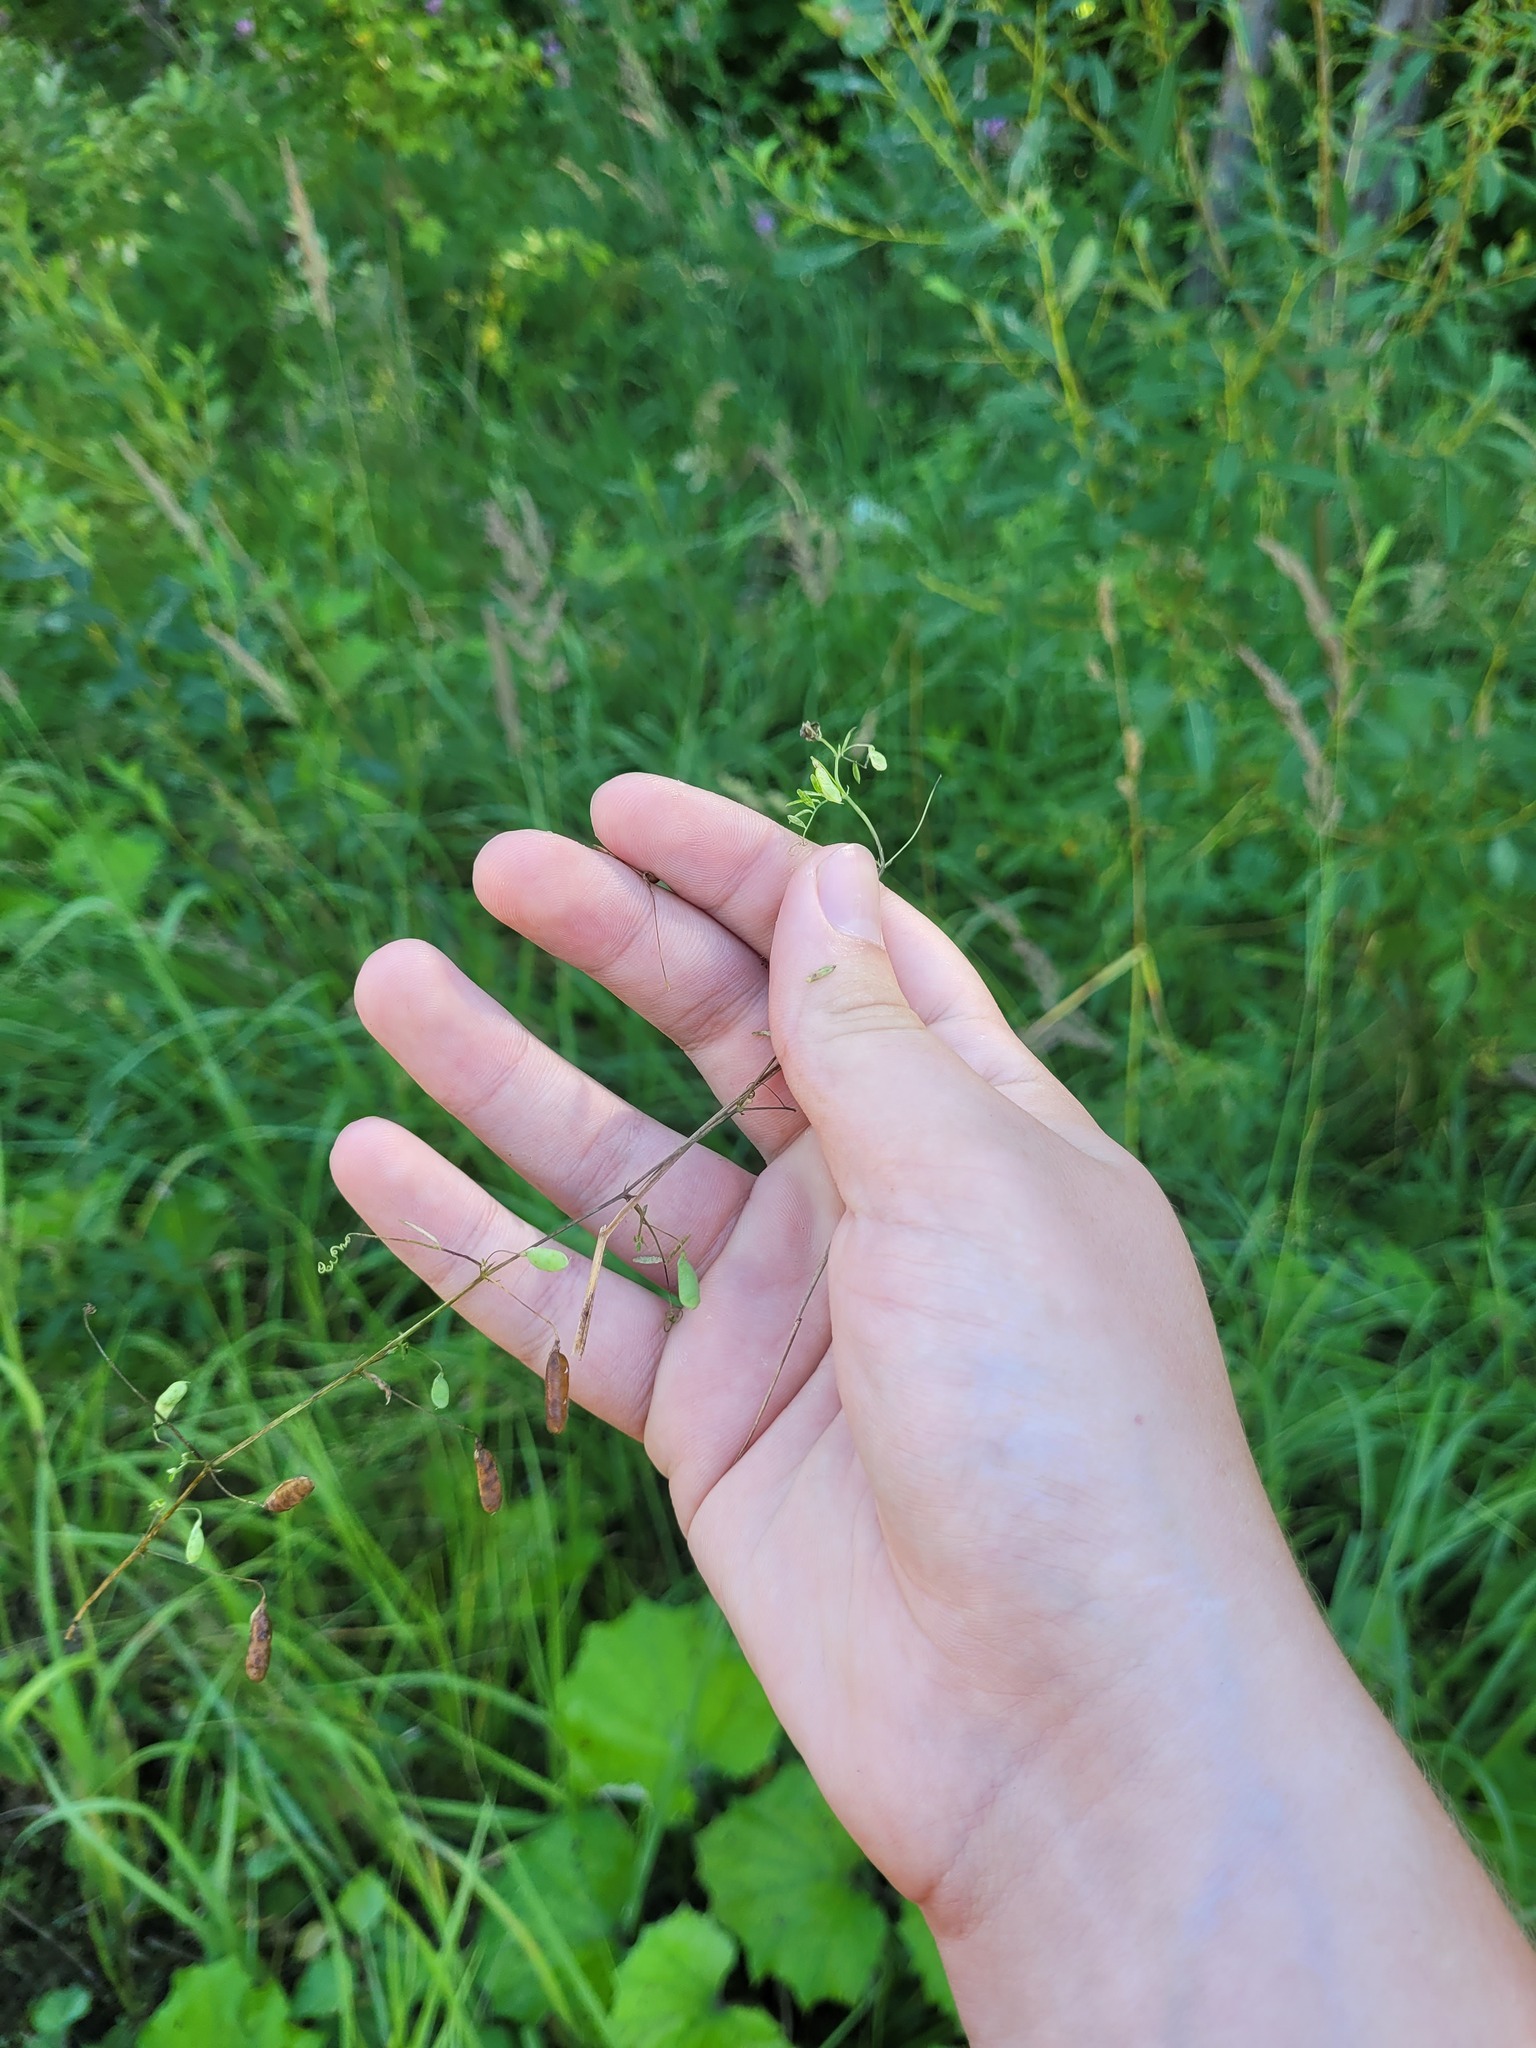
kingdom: Plantae
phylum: Tracheophyta
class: Magnoliopsida
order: Fabales
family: Fabaceae
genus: Vicia
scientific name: Vicia tetrasperma
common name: Smooth tare
